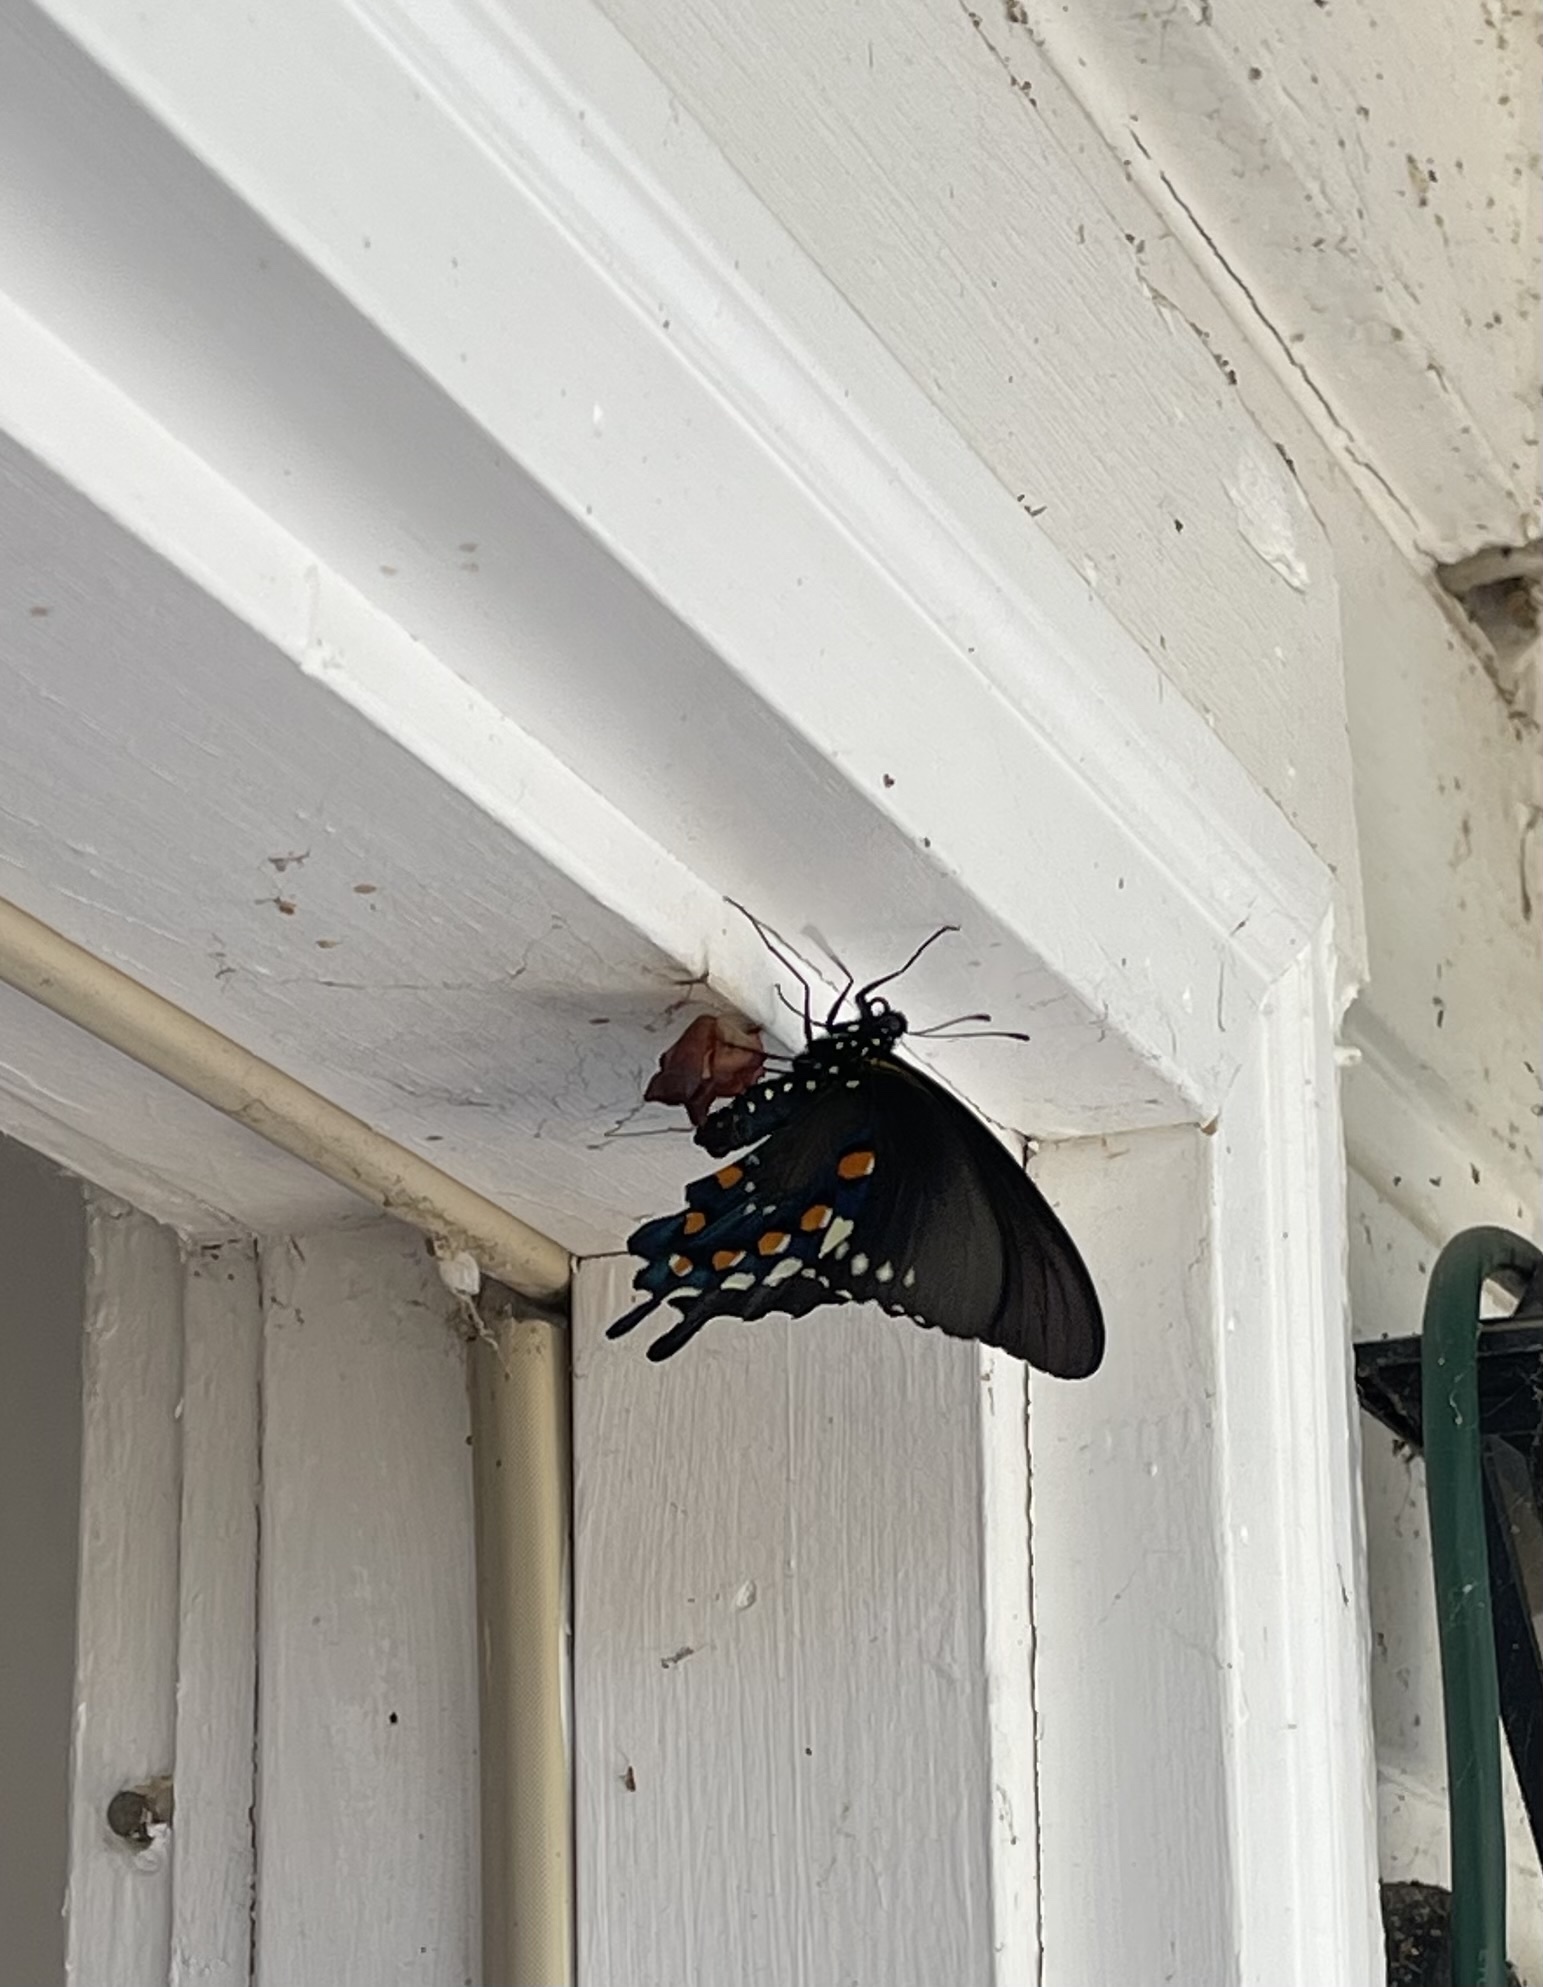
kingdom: Animalia
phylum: Arthropoda
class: Insecta
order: Lepidoptera
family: Papilionidae
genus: Battus
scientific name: Battus philenor
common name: Pipevine swallowtail
